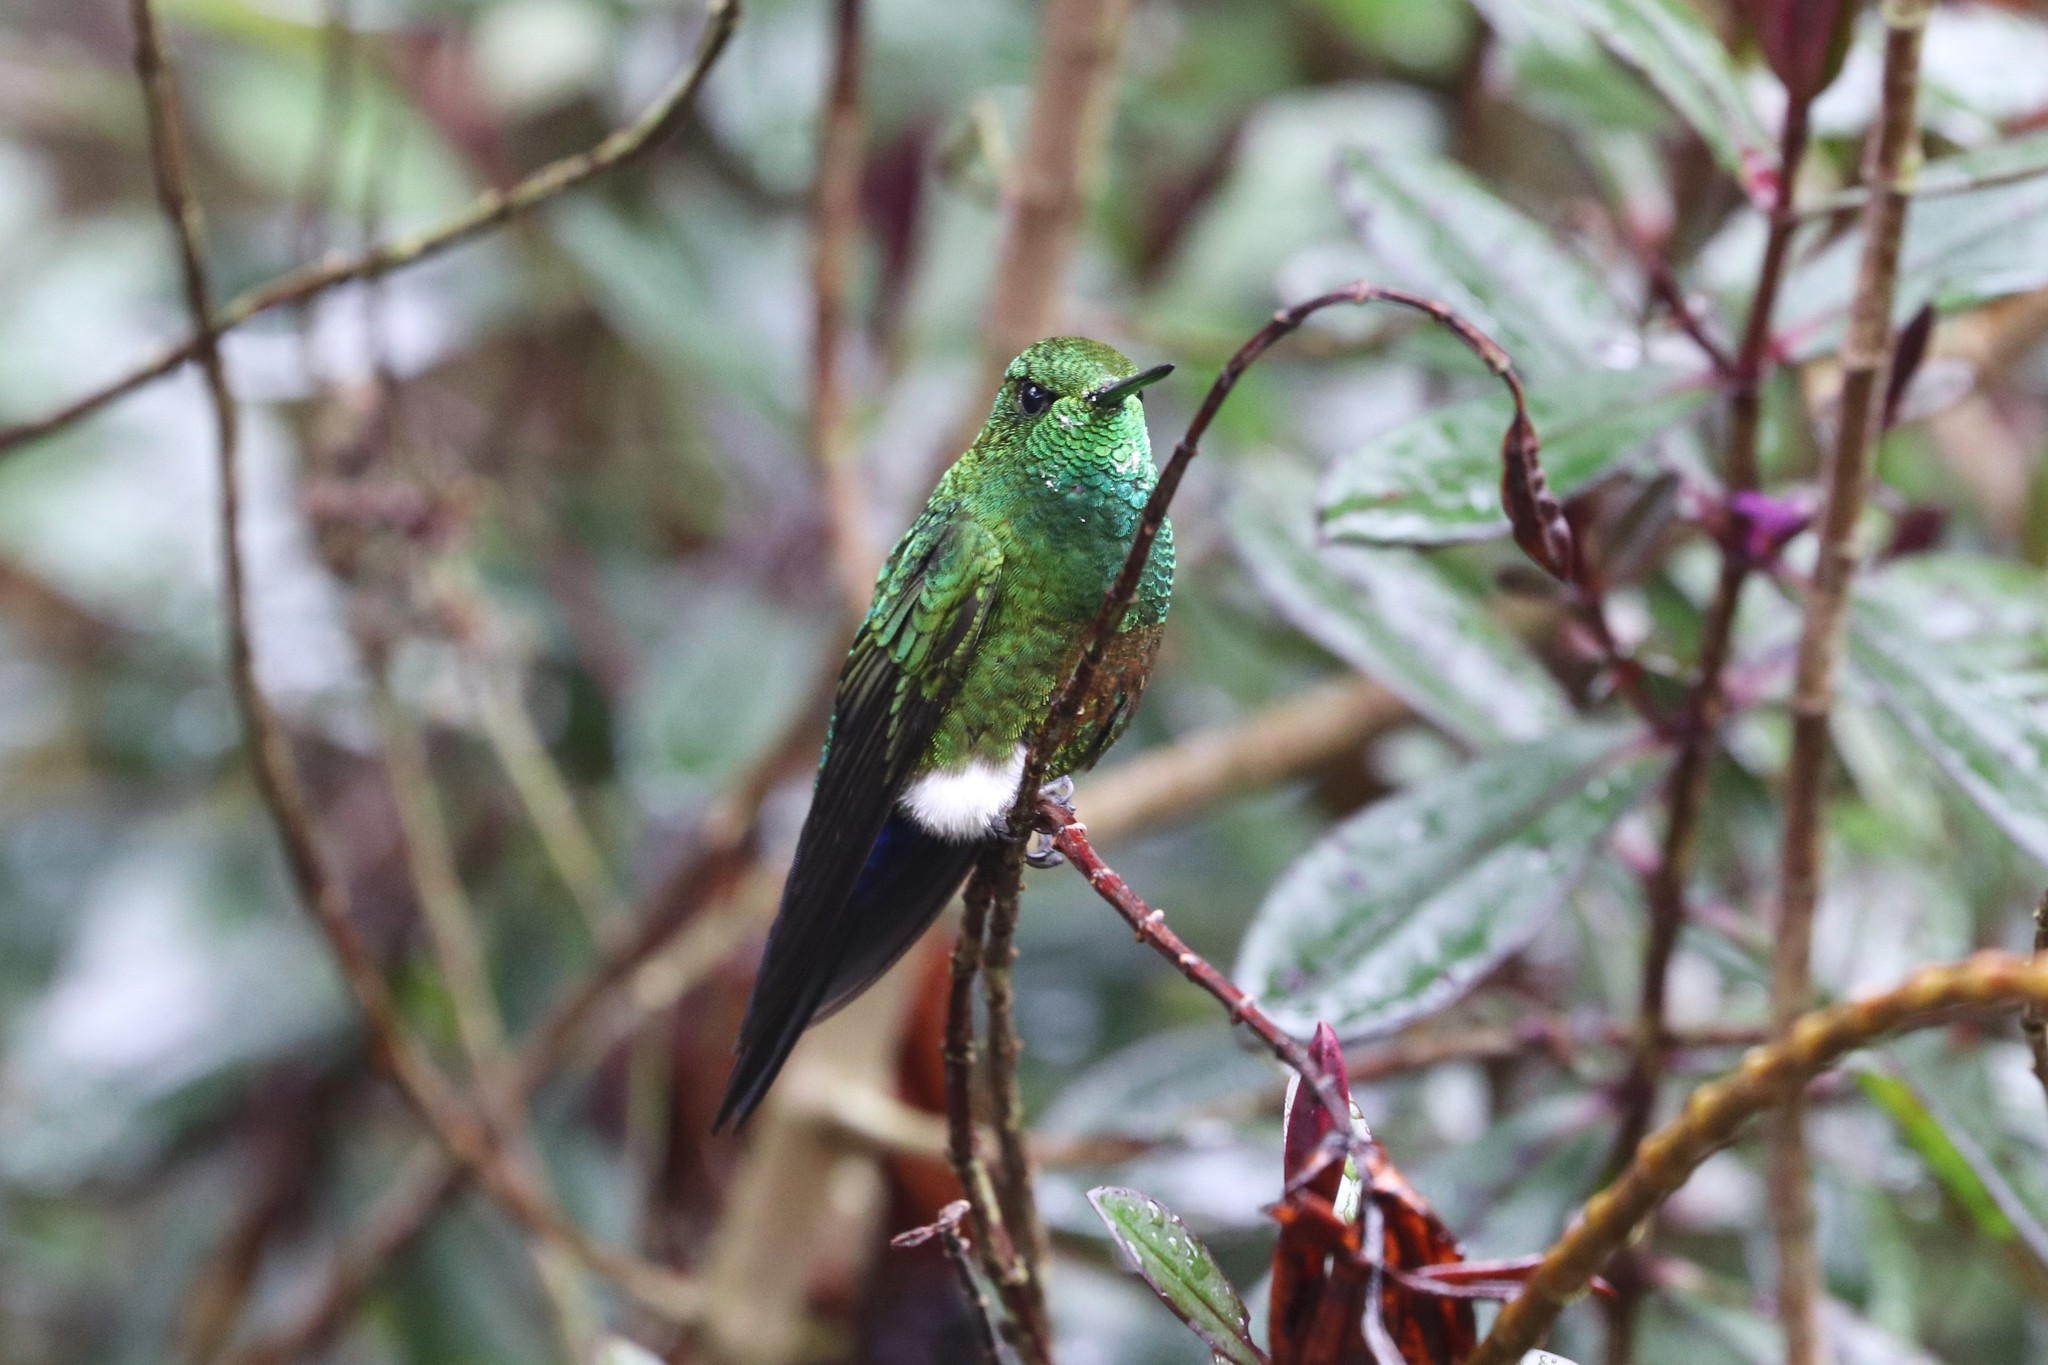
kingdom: Animalia
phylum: Chordata
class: Aves
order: Apodiformes
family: Trochilidae
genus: Eriocnemis
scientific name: Eriocnemis cupreoventris
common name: Coppery-bellied puffleg
